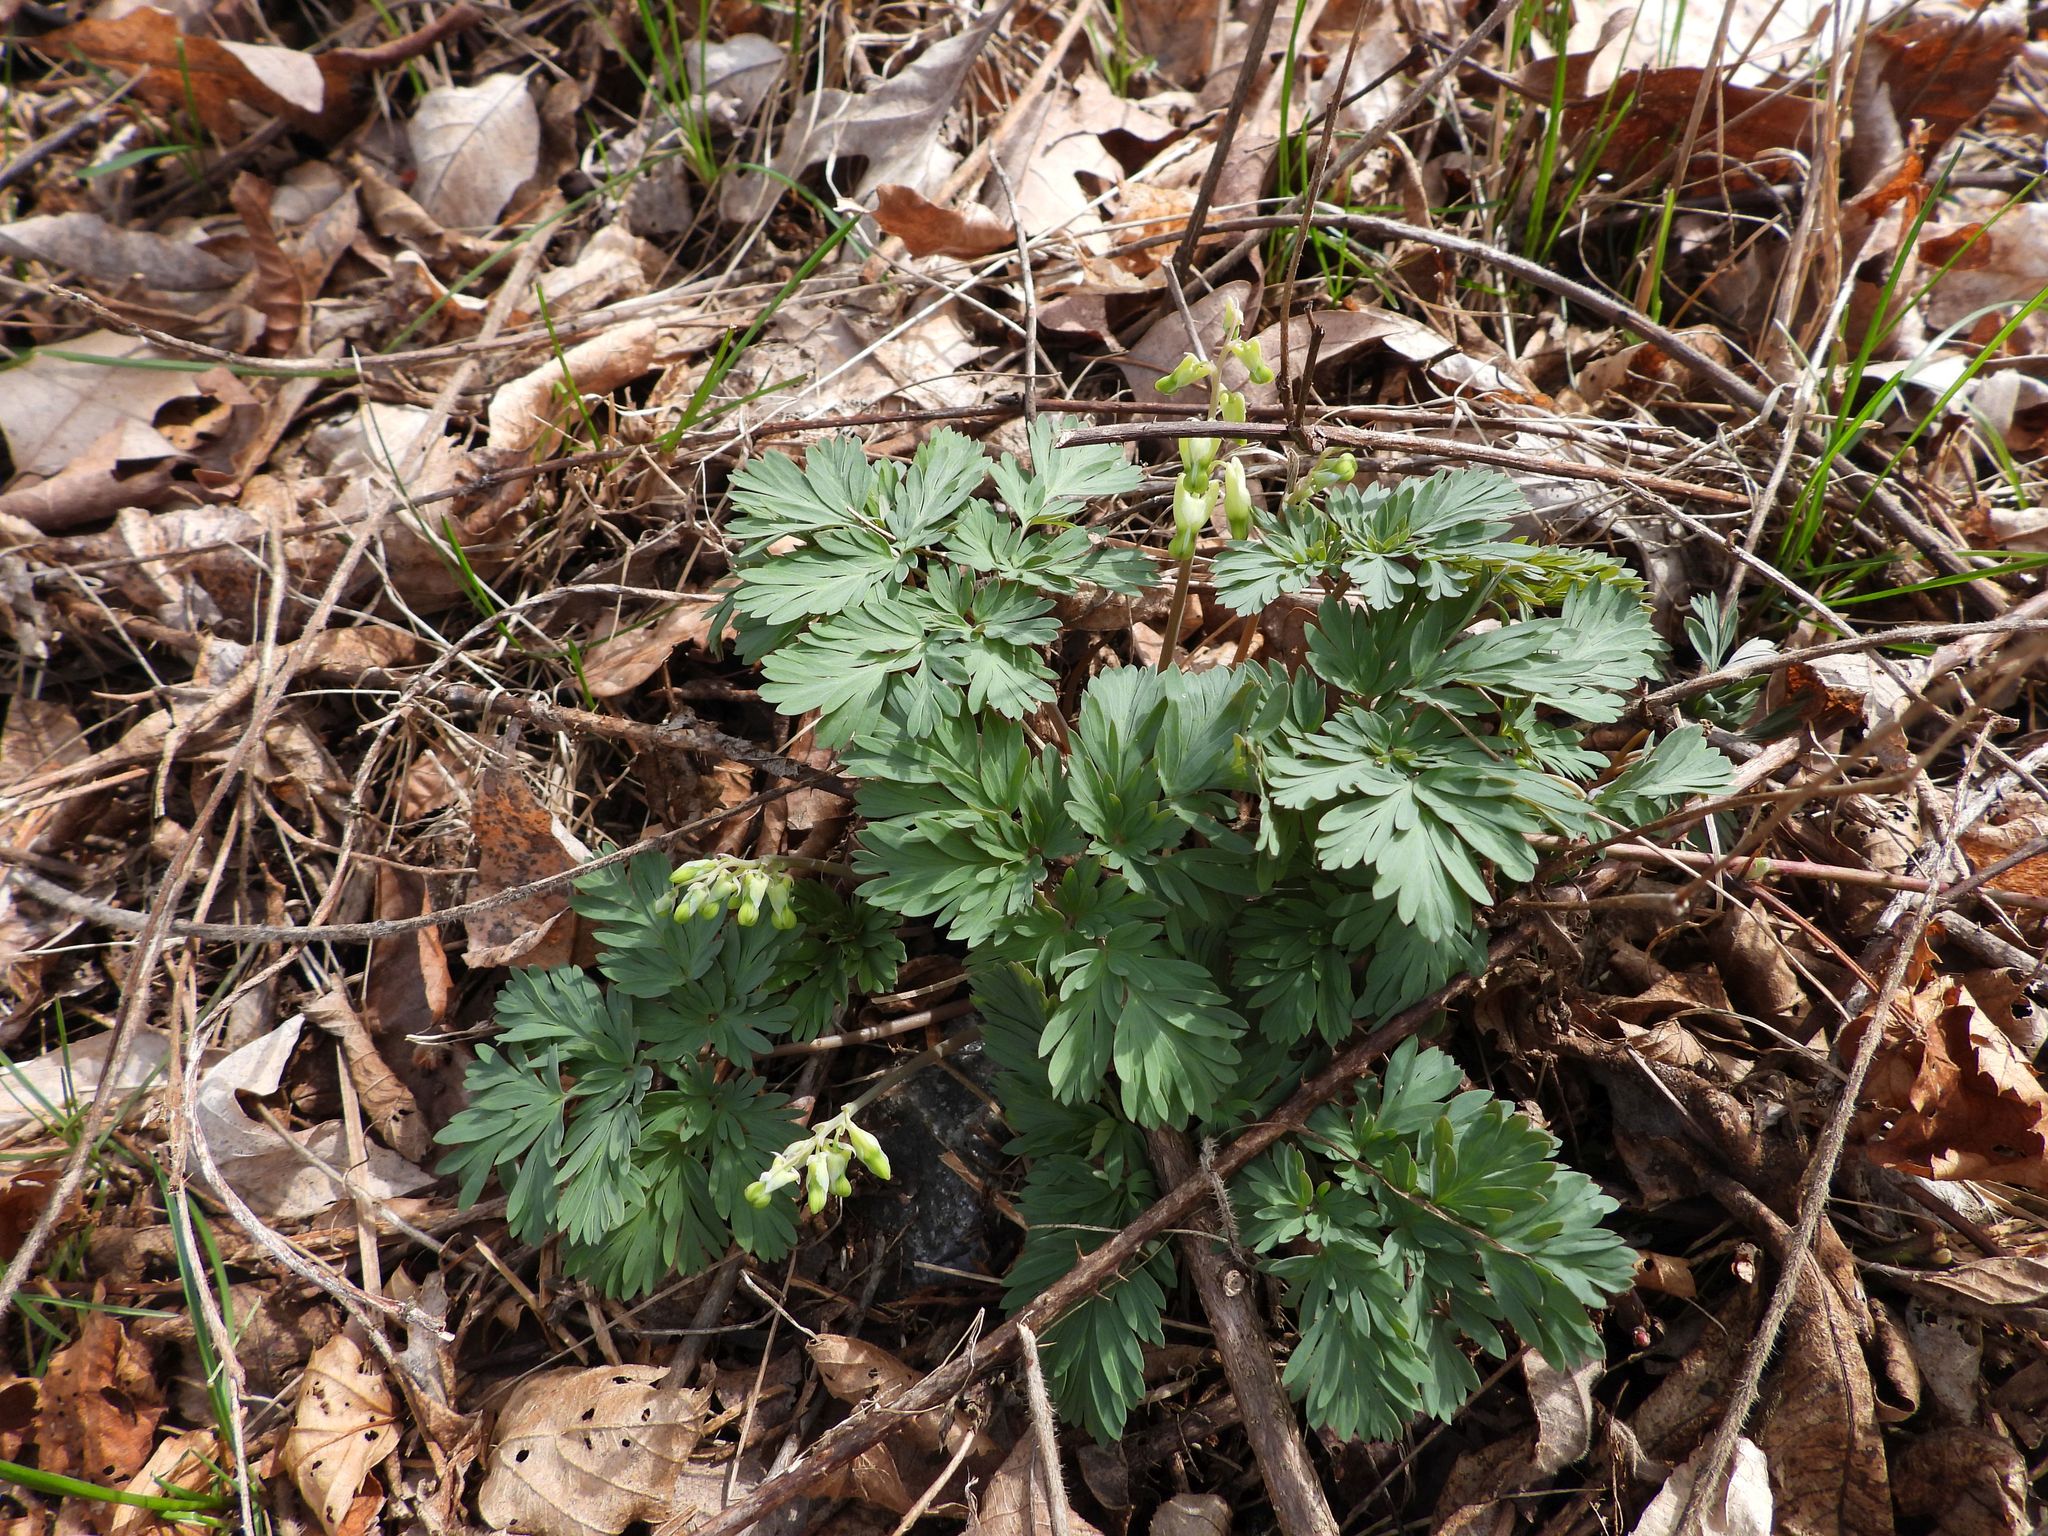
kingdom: Plantae
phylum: Tracheophyta
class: Magnoliopsida
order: Ranunculales
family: Papaveraceae
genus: Dicentra
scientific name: Dicentra cucullaria
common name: Dutchman's breeches
